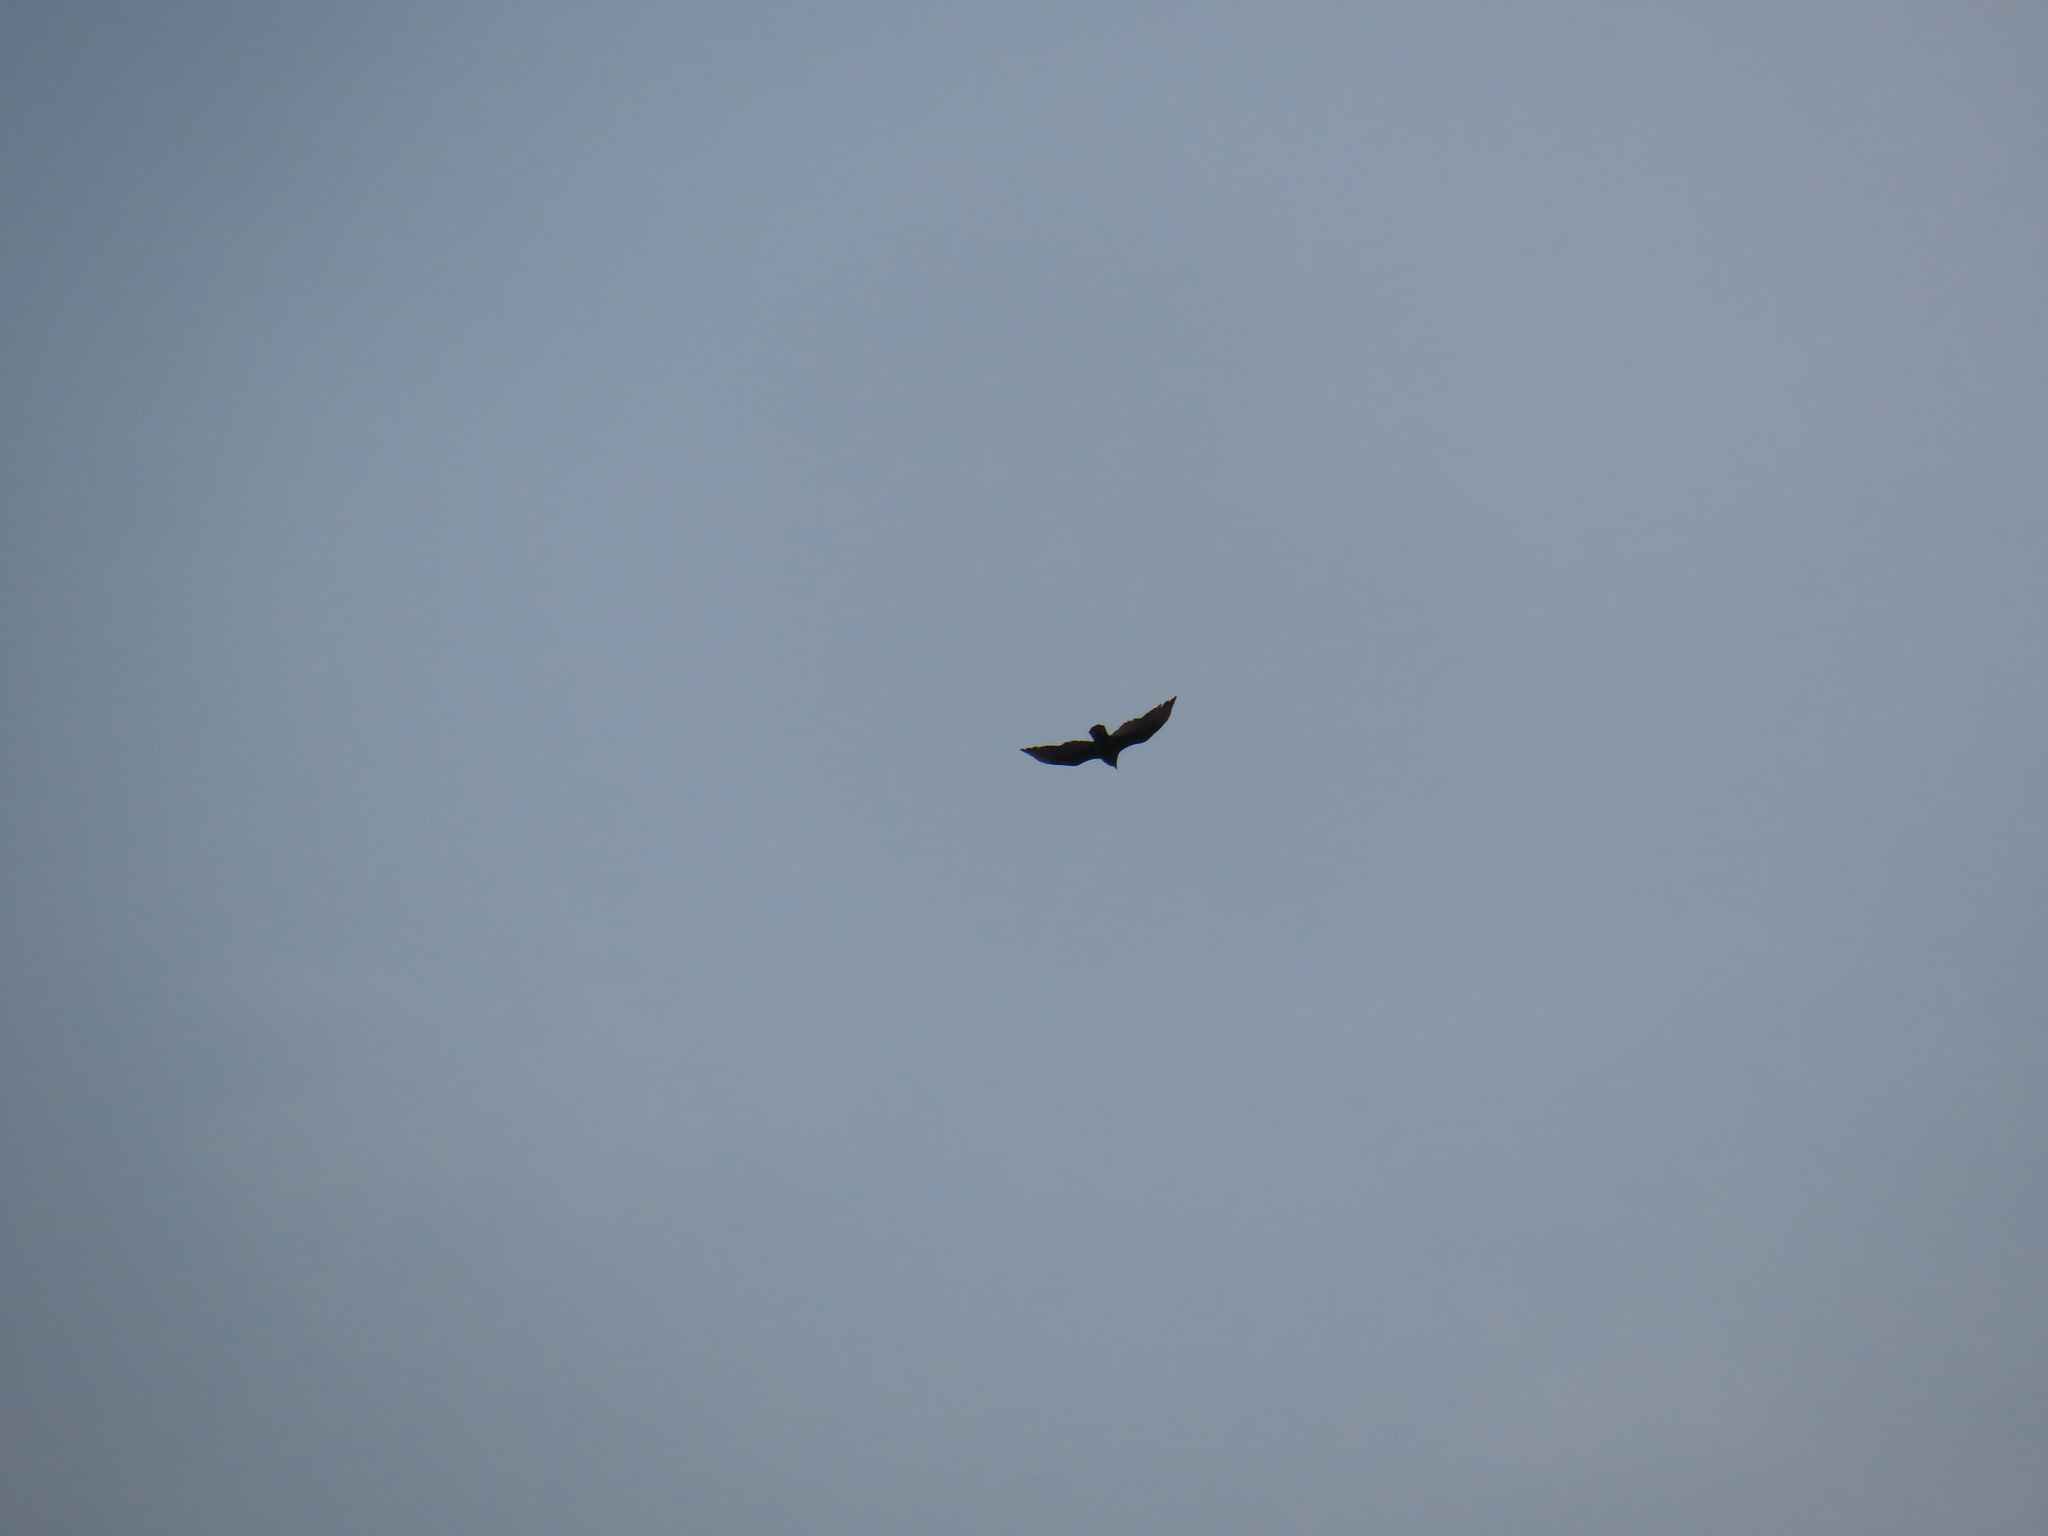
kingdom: Animalia
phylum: Chordata
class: Aves
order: Accipitriformes
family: Cathartidae
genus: Cathartes
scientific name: Cathartes aura
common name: Turkey vulture
